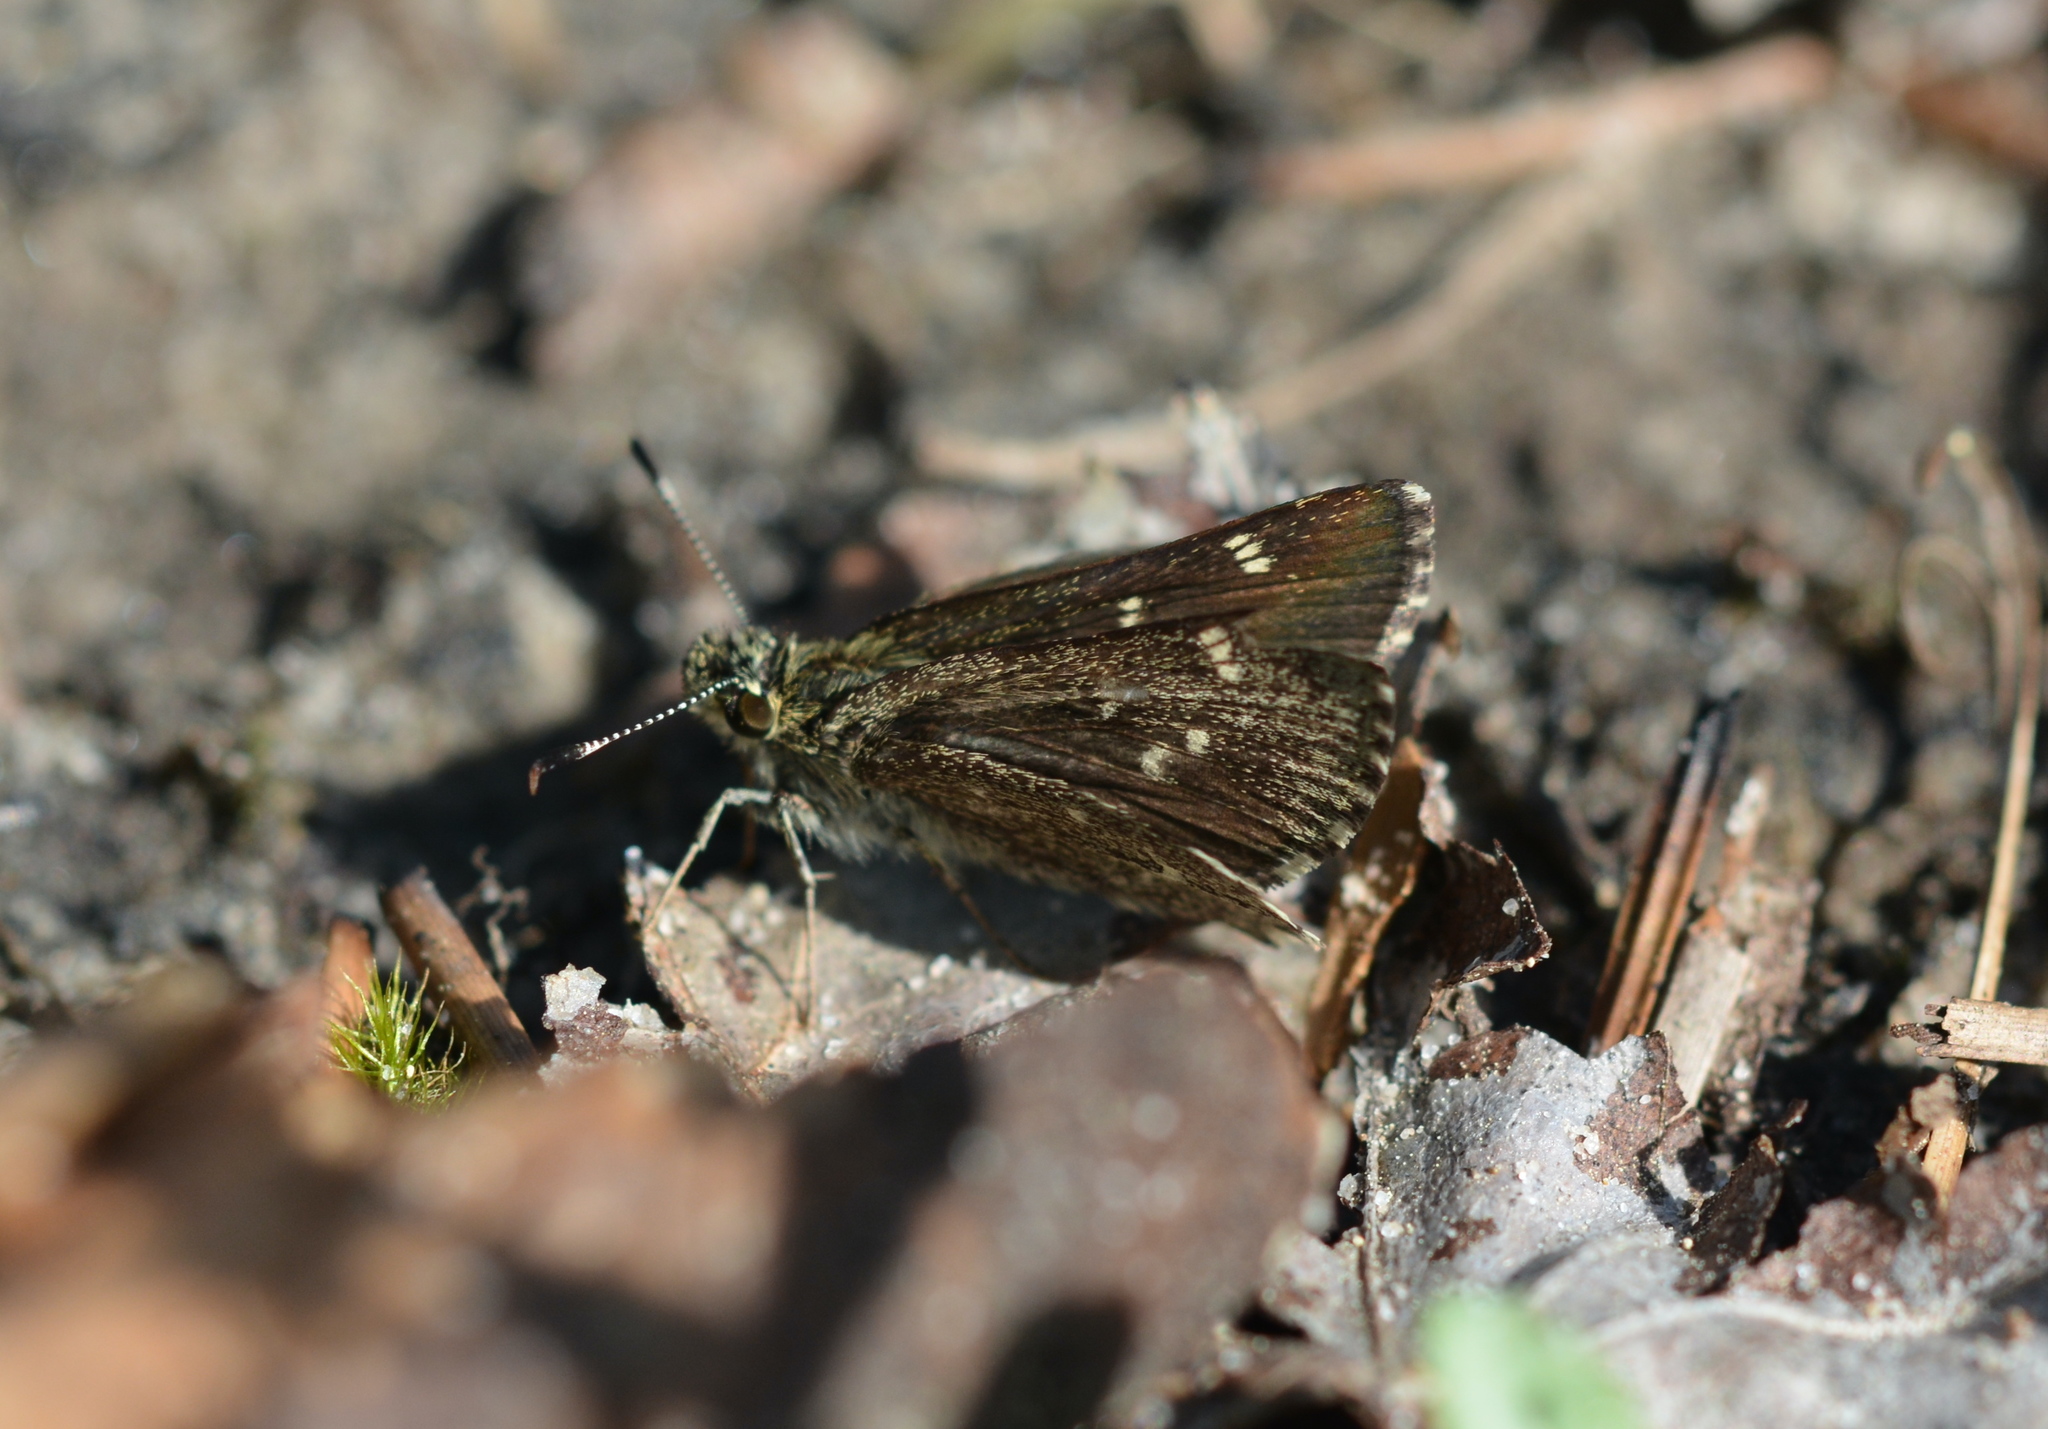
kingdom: Animalia
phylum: Arthropoda
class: Insecta
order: Lepidoptera
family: Hesperiidae
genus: Mastor
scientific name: Mastor hegon
